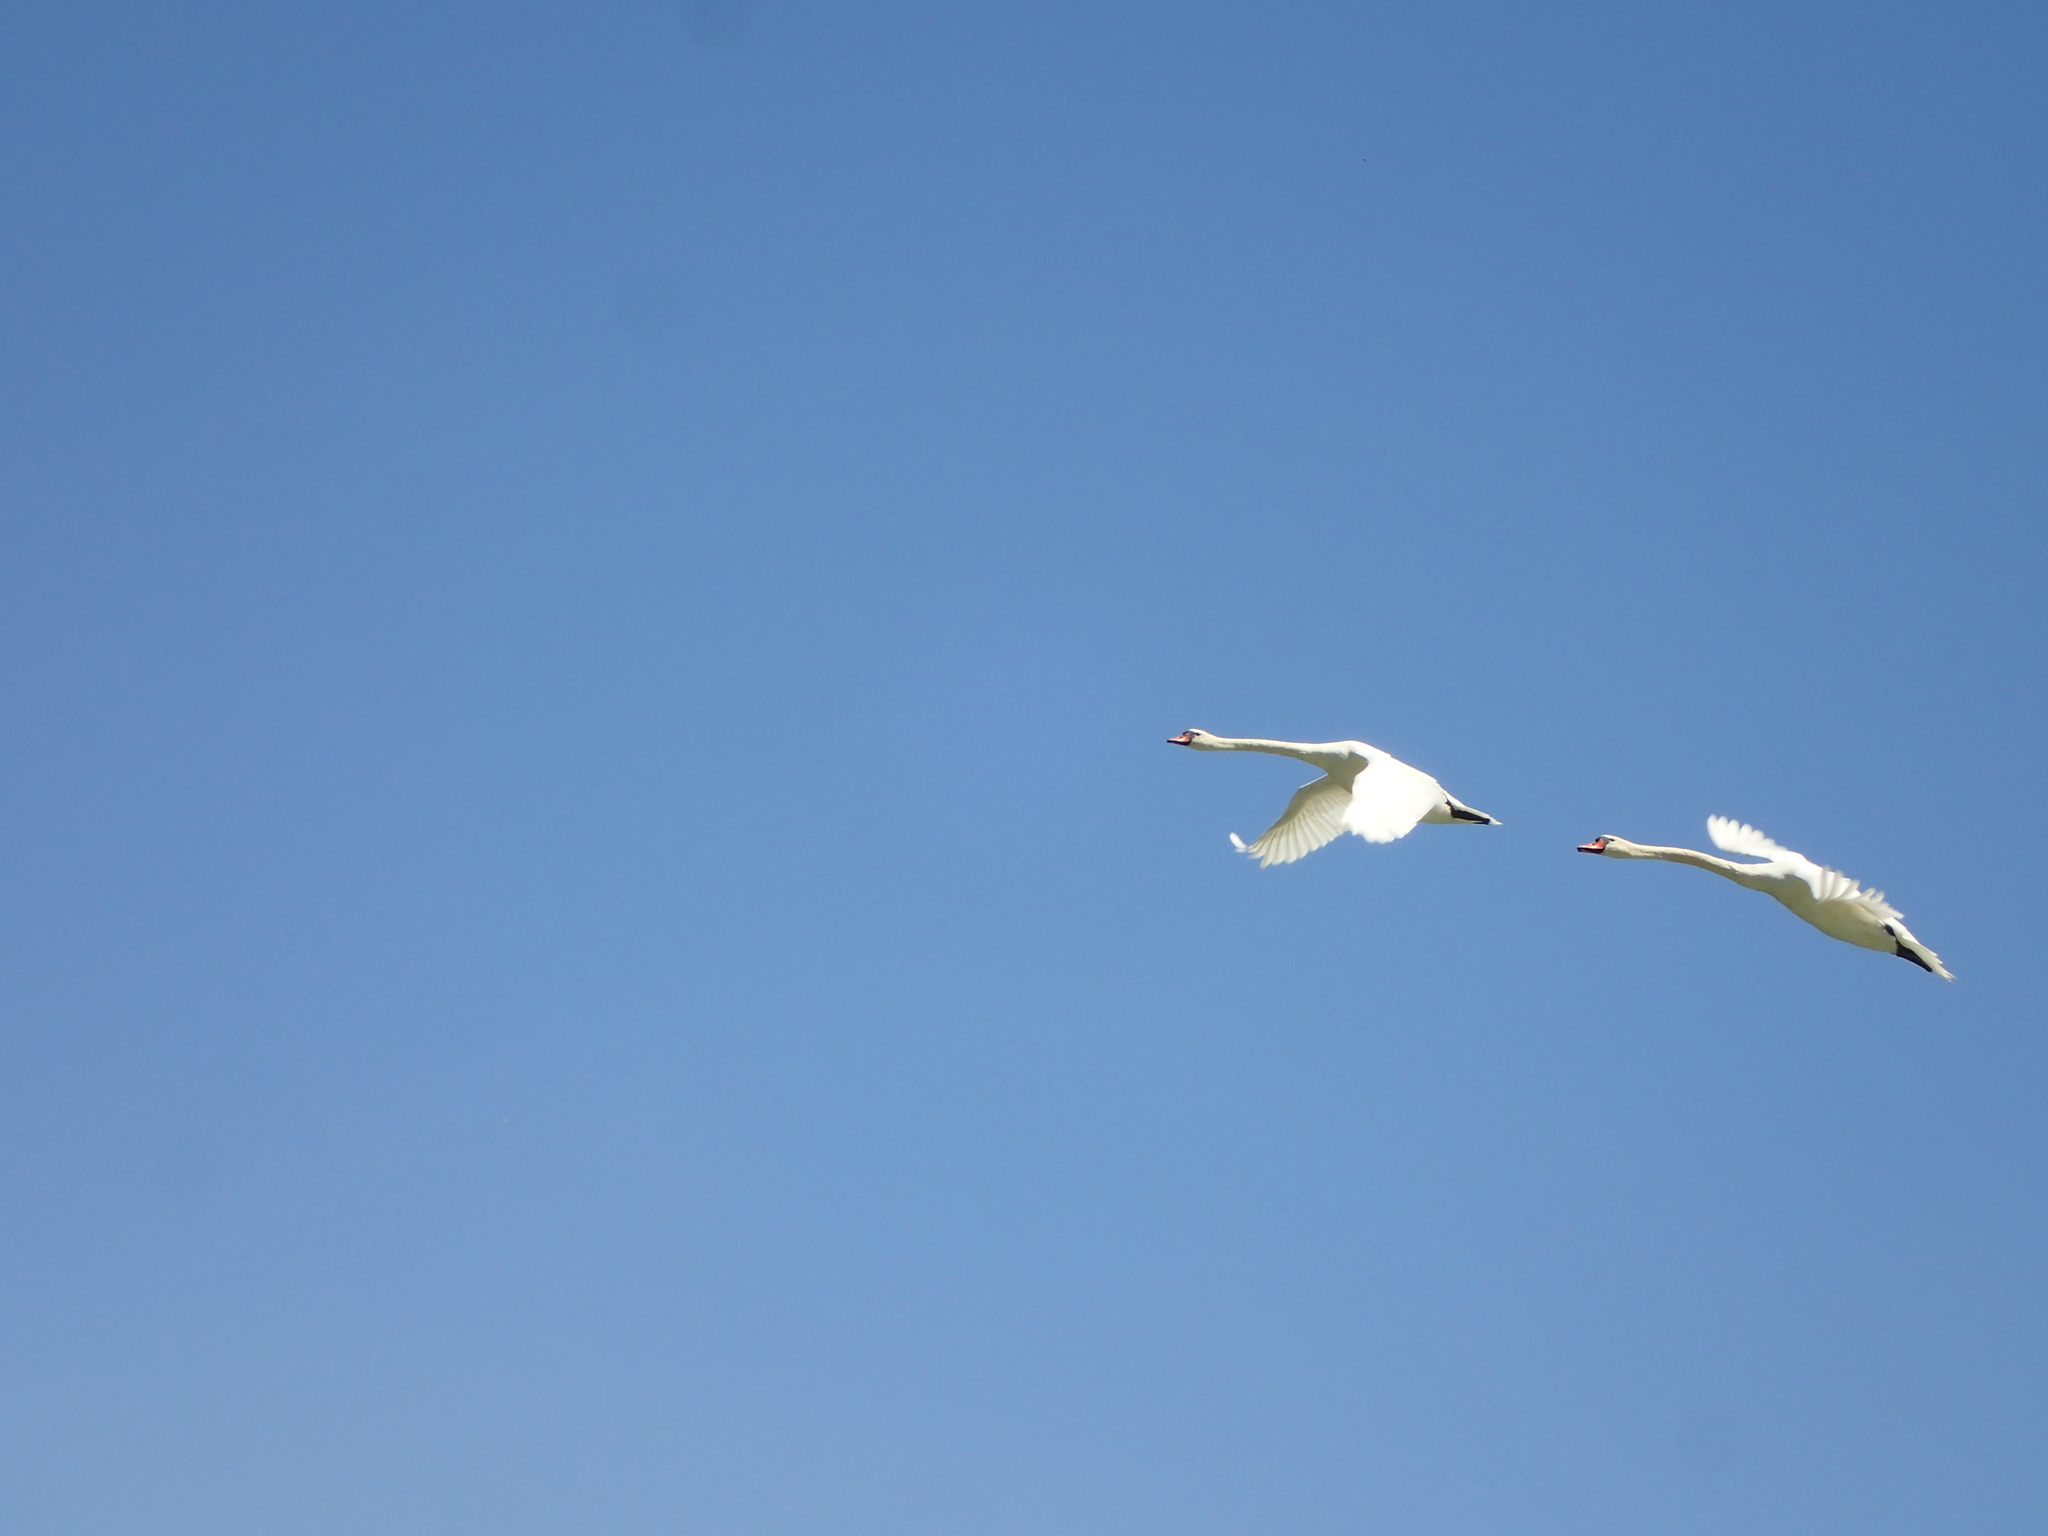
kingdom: Animalia
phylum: Chordata
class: Aves
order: Anseriformes
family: Anatidae
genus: Cygnus
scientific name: Cygnus olor
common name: Mute swan
